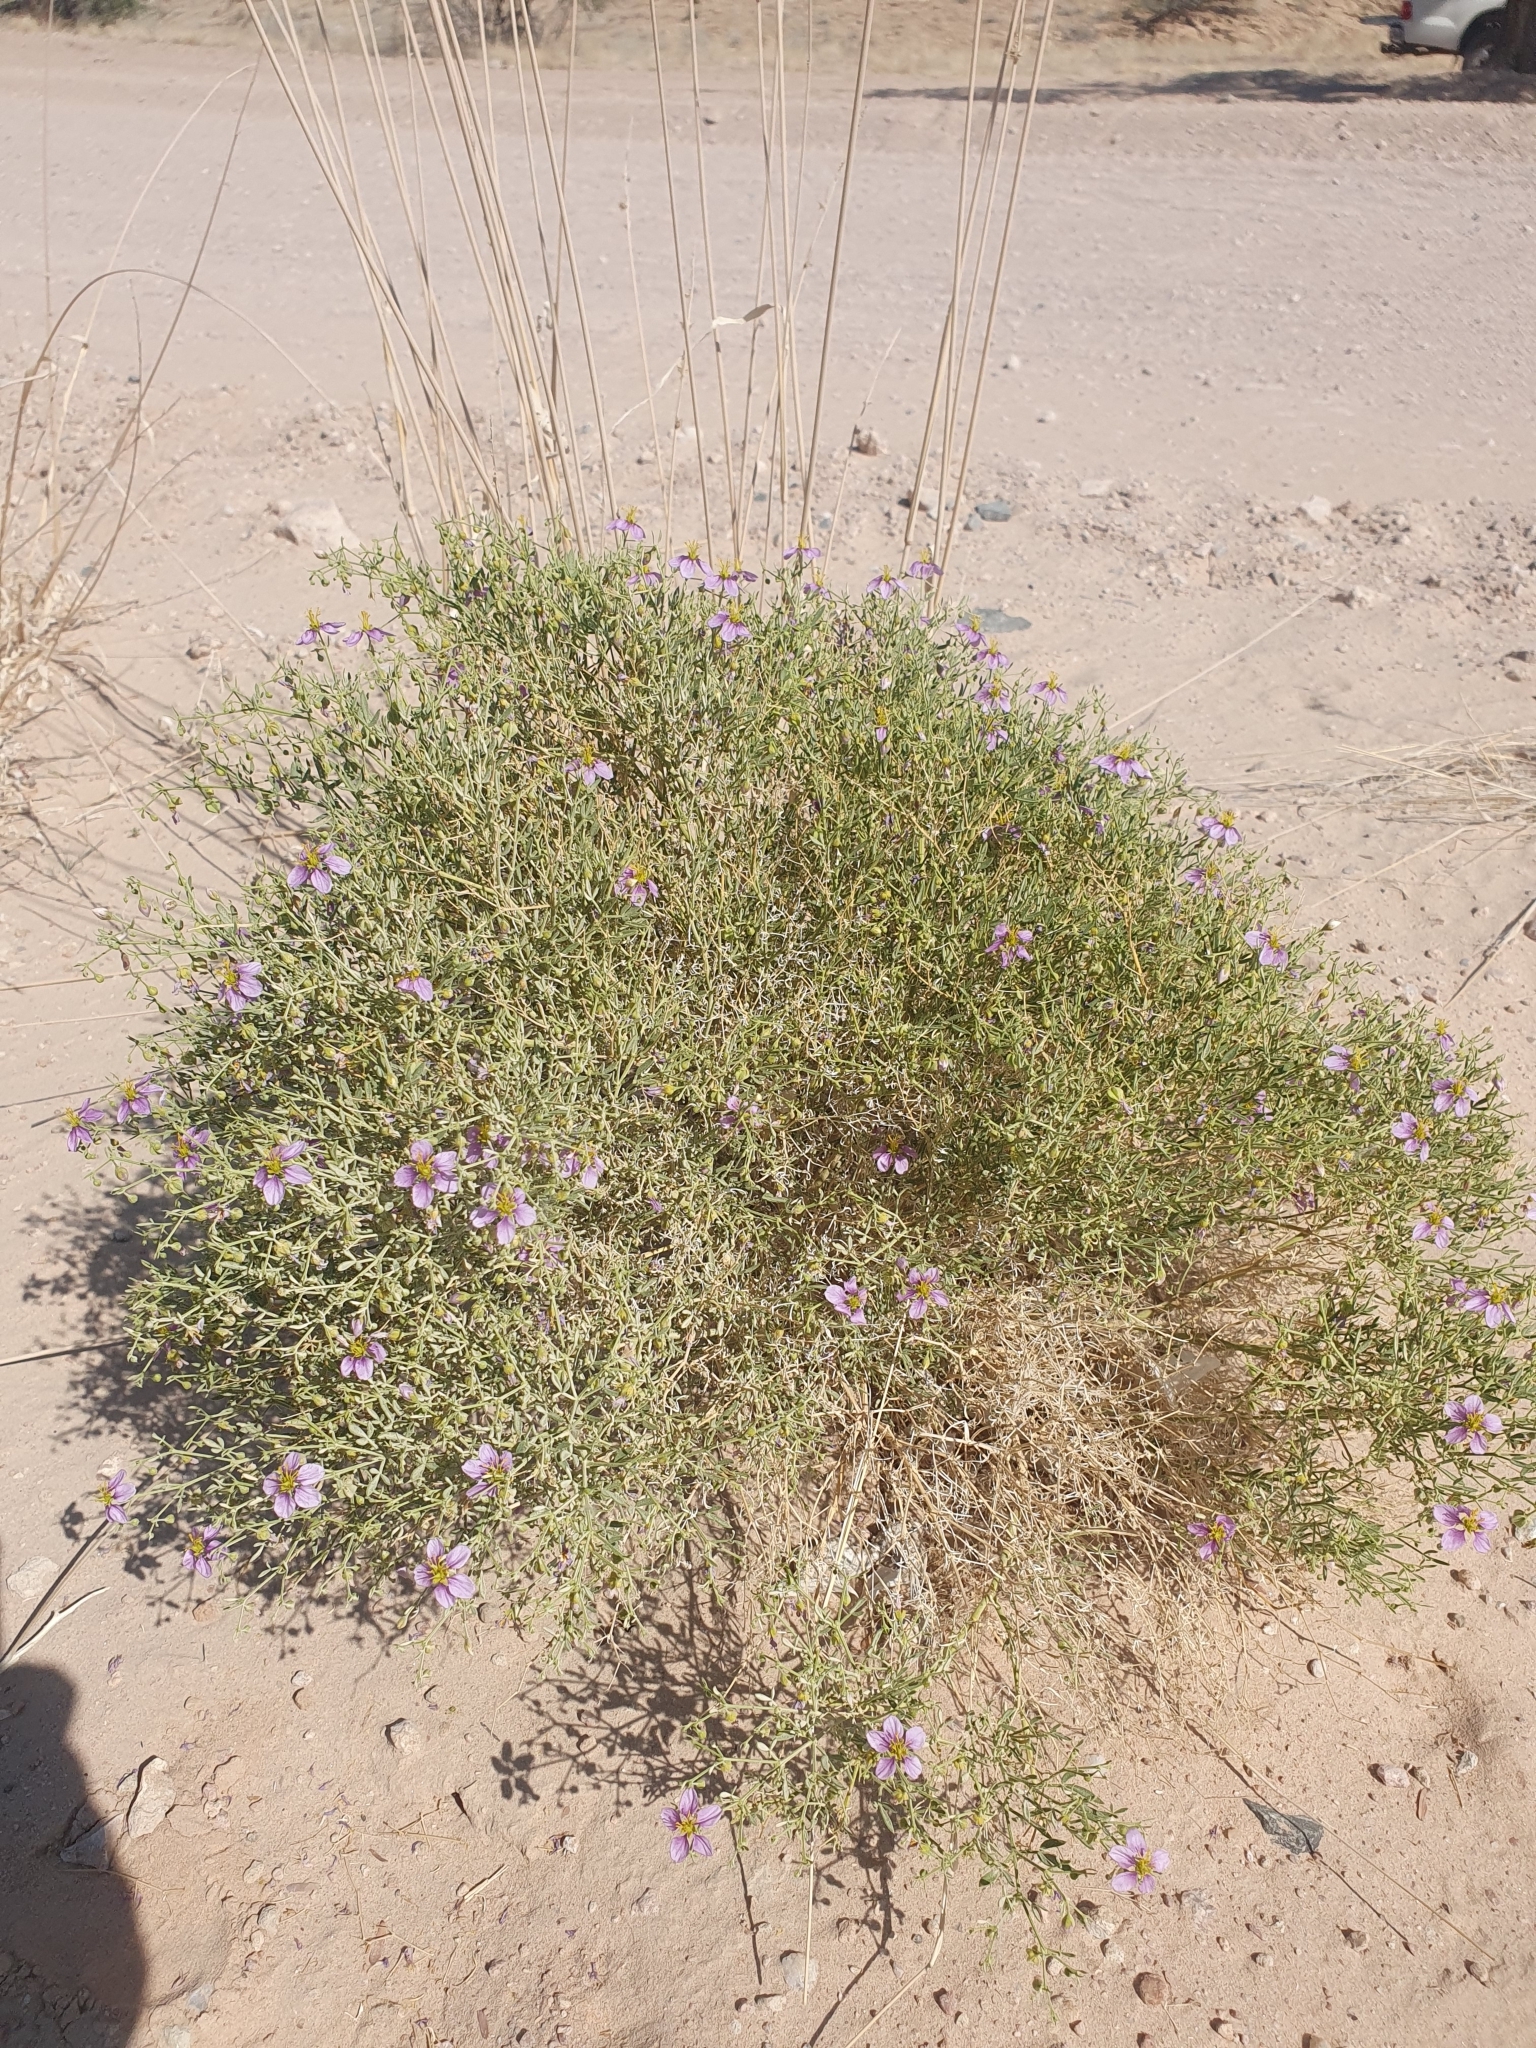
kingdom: Plantae
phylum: Tracheophyta
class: Magnoliopsida
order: Zygophyllales
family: Zygophyllaceae
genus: Fagonia
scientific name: Fagonia minutistipula
